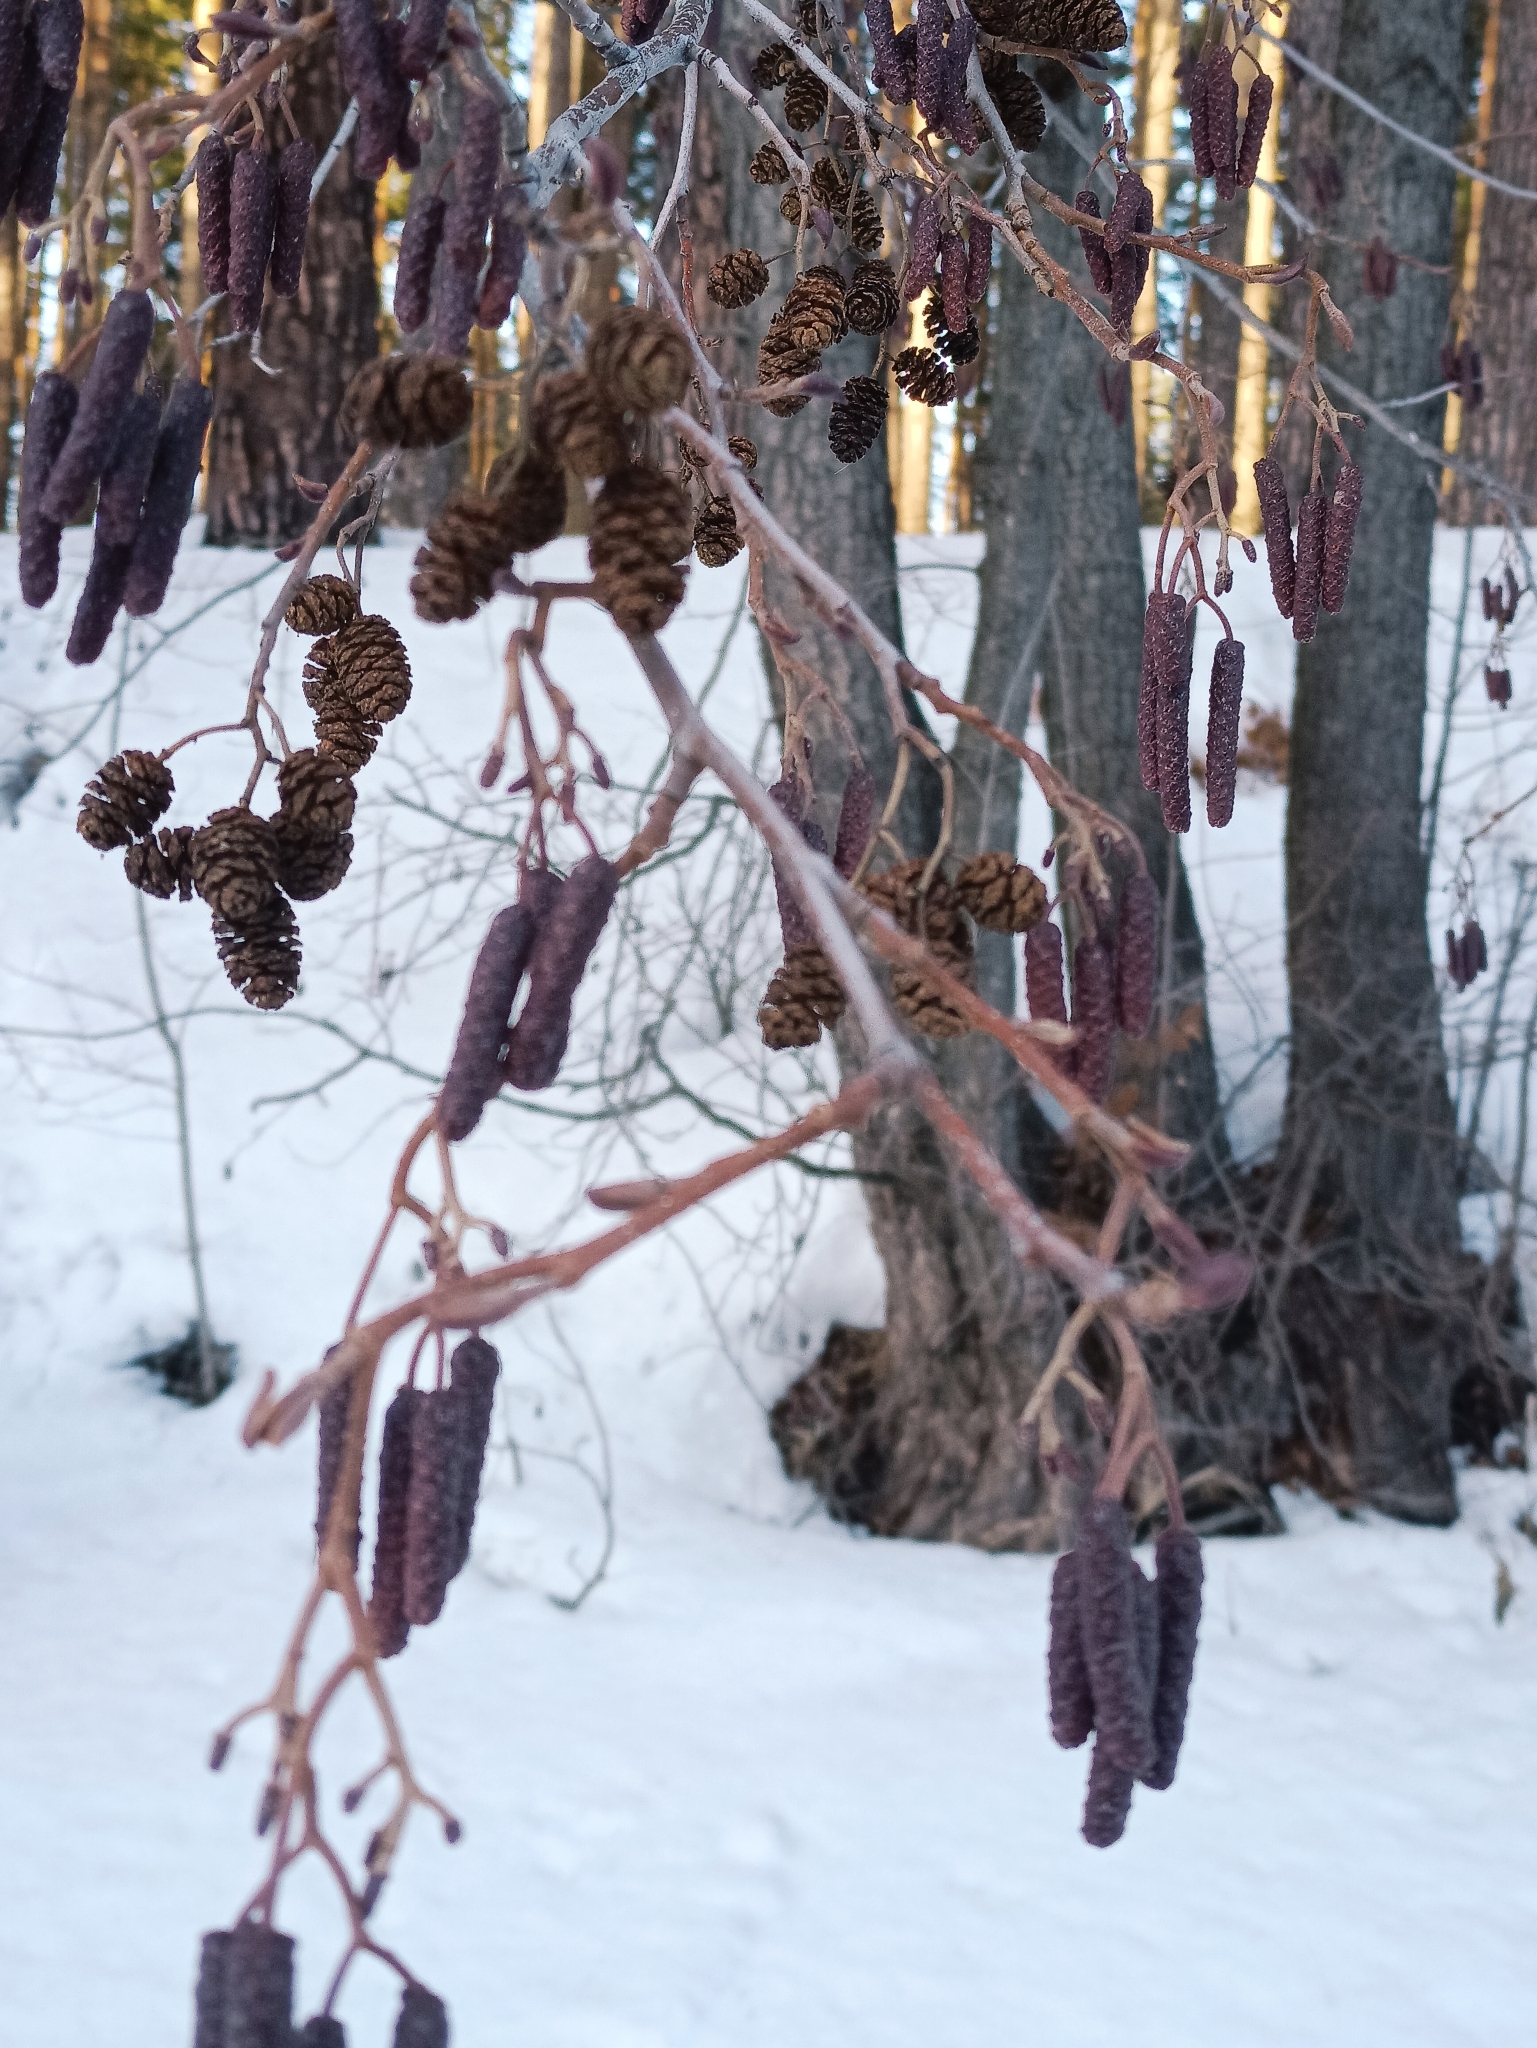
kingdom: Plantae
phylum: Tracheophyta
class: Magnoliopsida
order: Fagales
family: Betulaceae
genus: Alnus
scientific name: Alnus glutinosa
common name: Black alder
